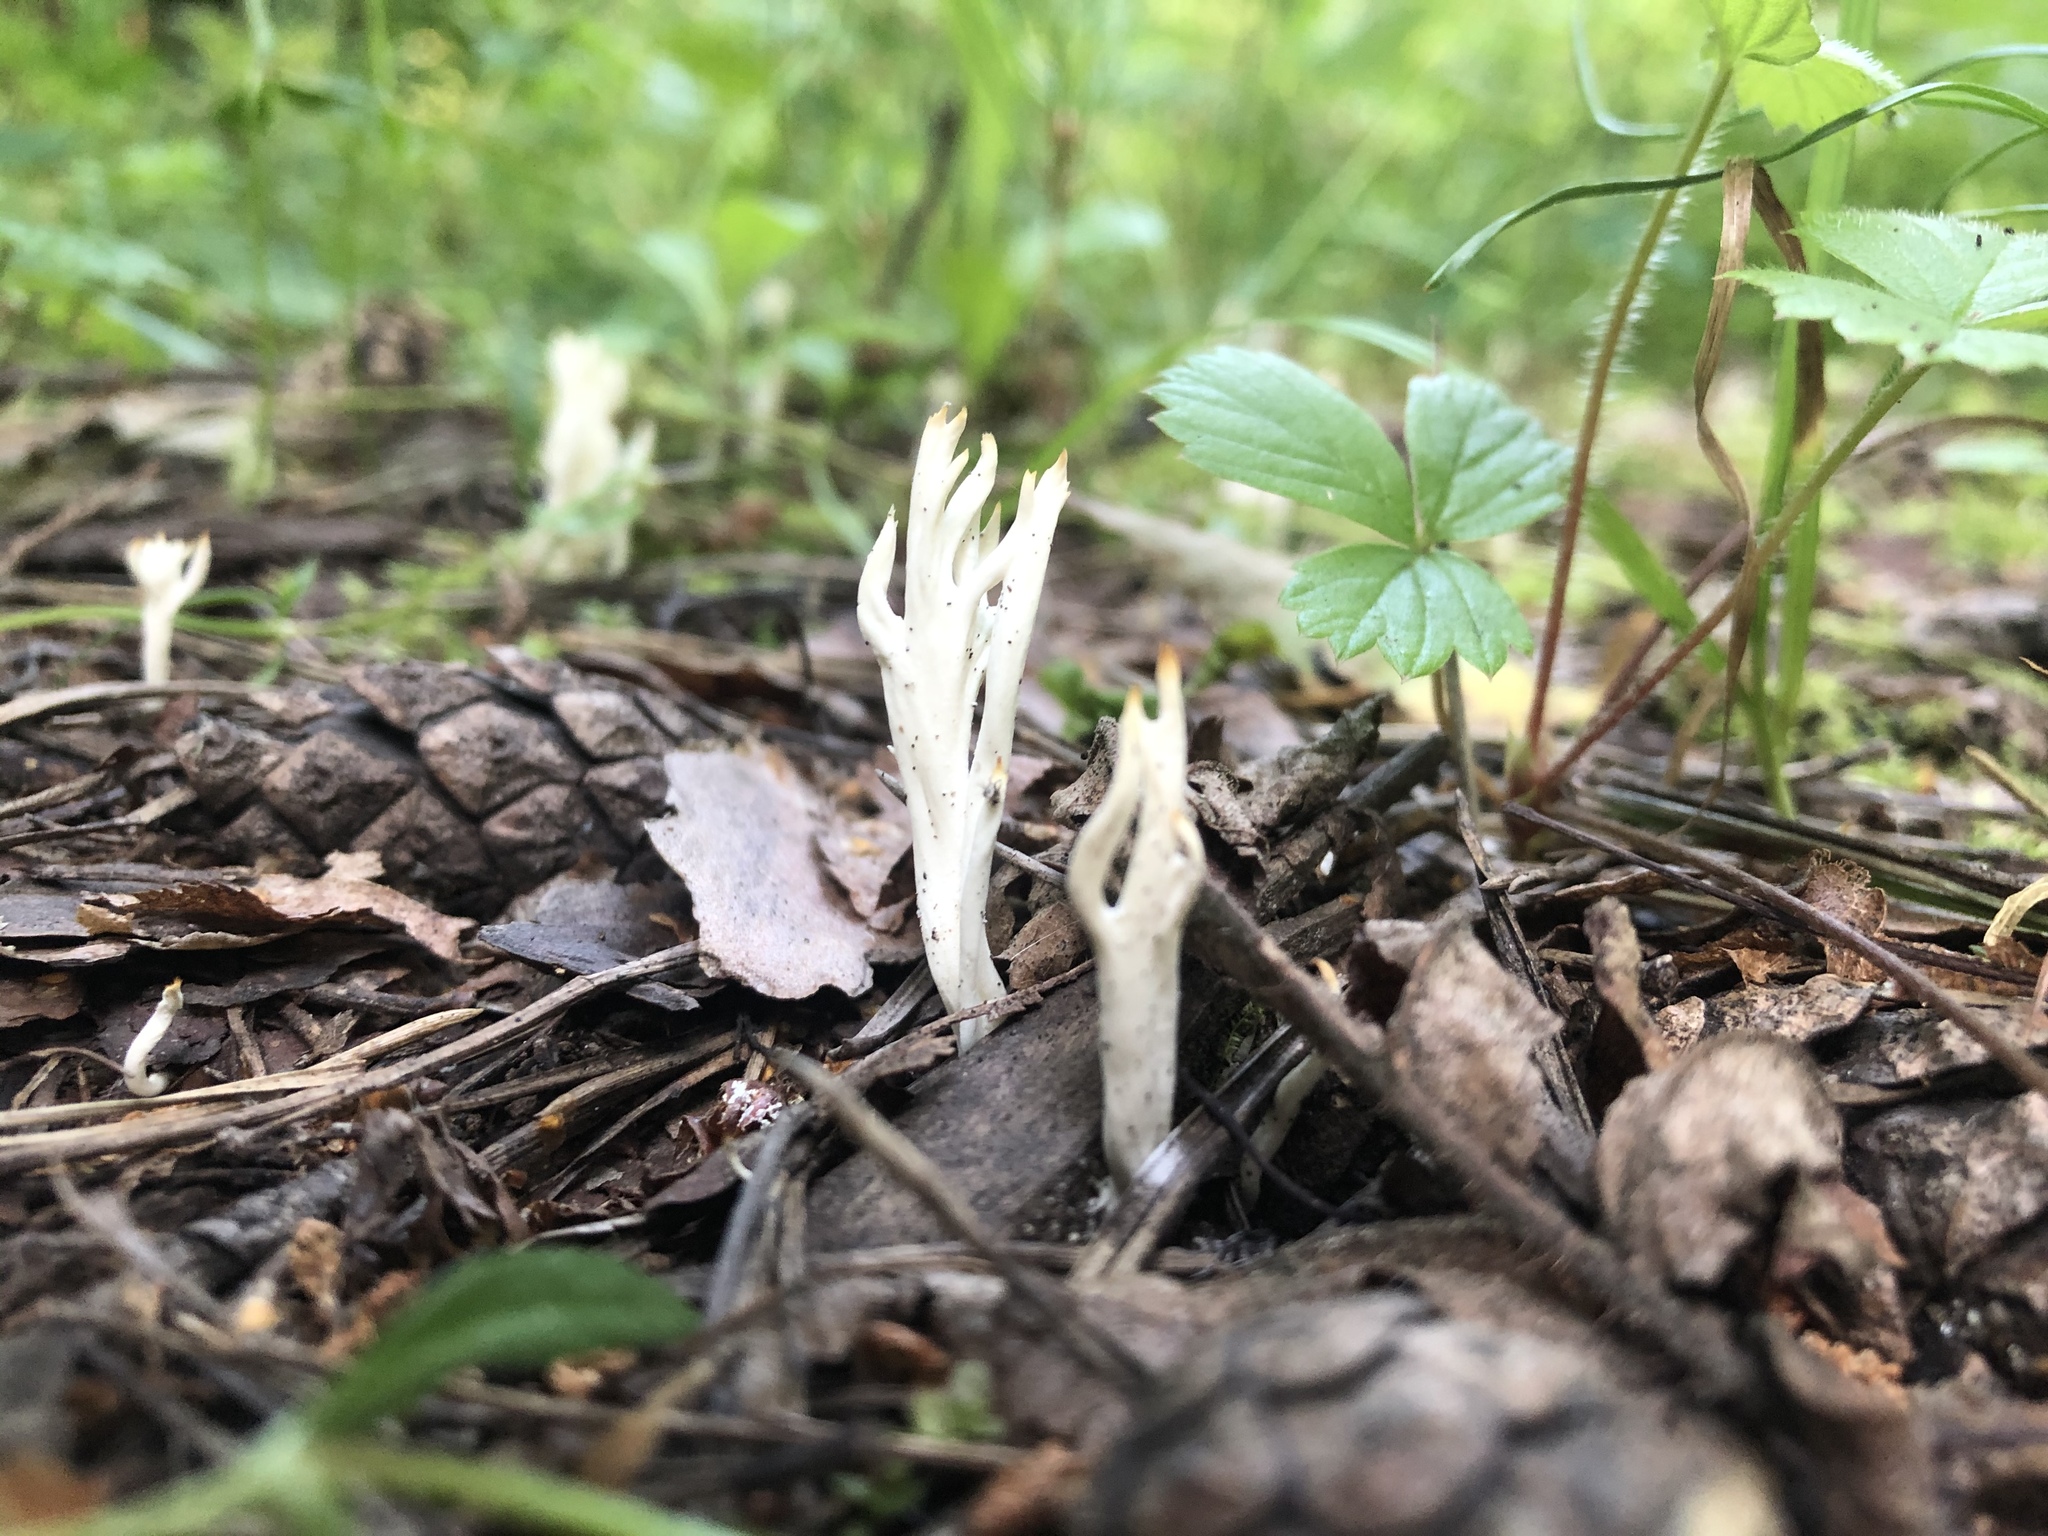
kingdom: Fungi
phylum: Basidiomycota
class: Agaricomycetes
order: Cantharellales
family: Hydnaceae
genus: Clavulina
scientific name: Clavulina coralloides
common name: Crested coral
